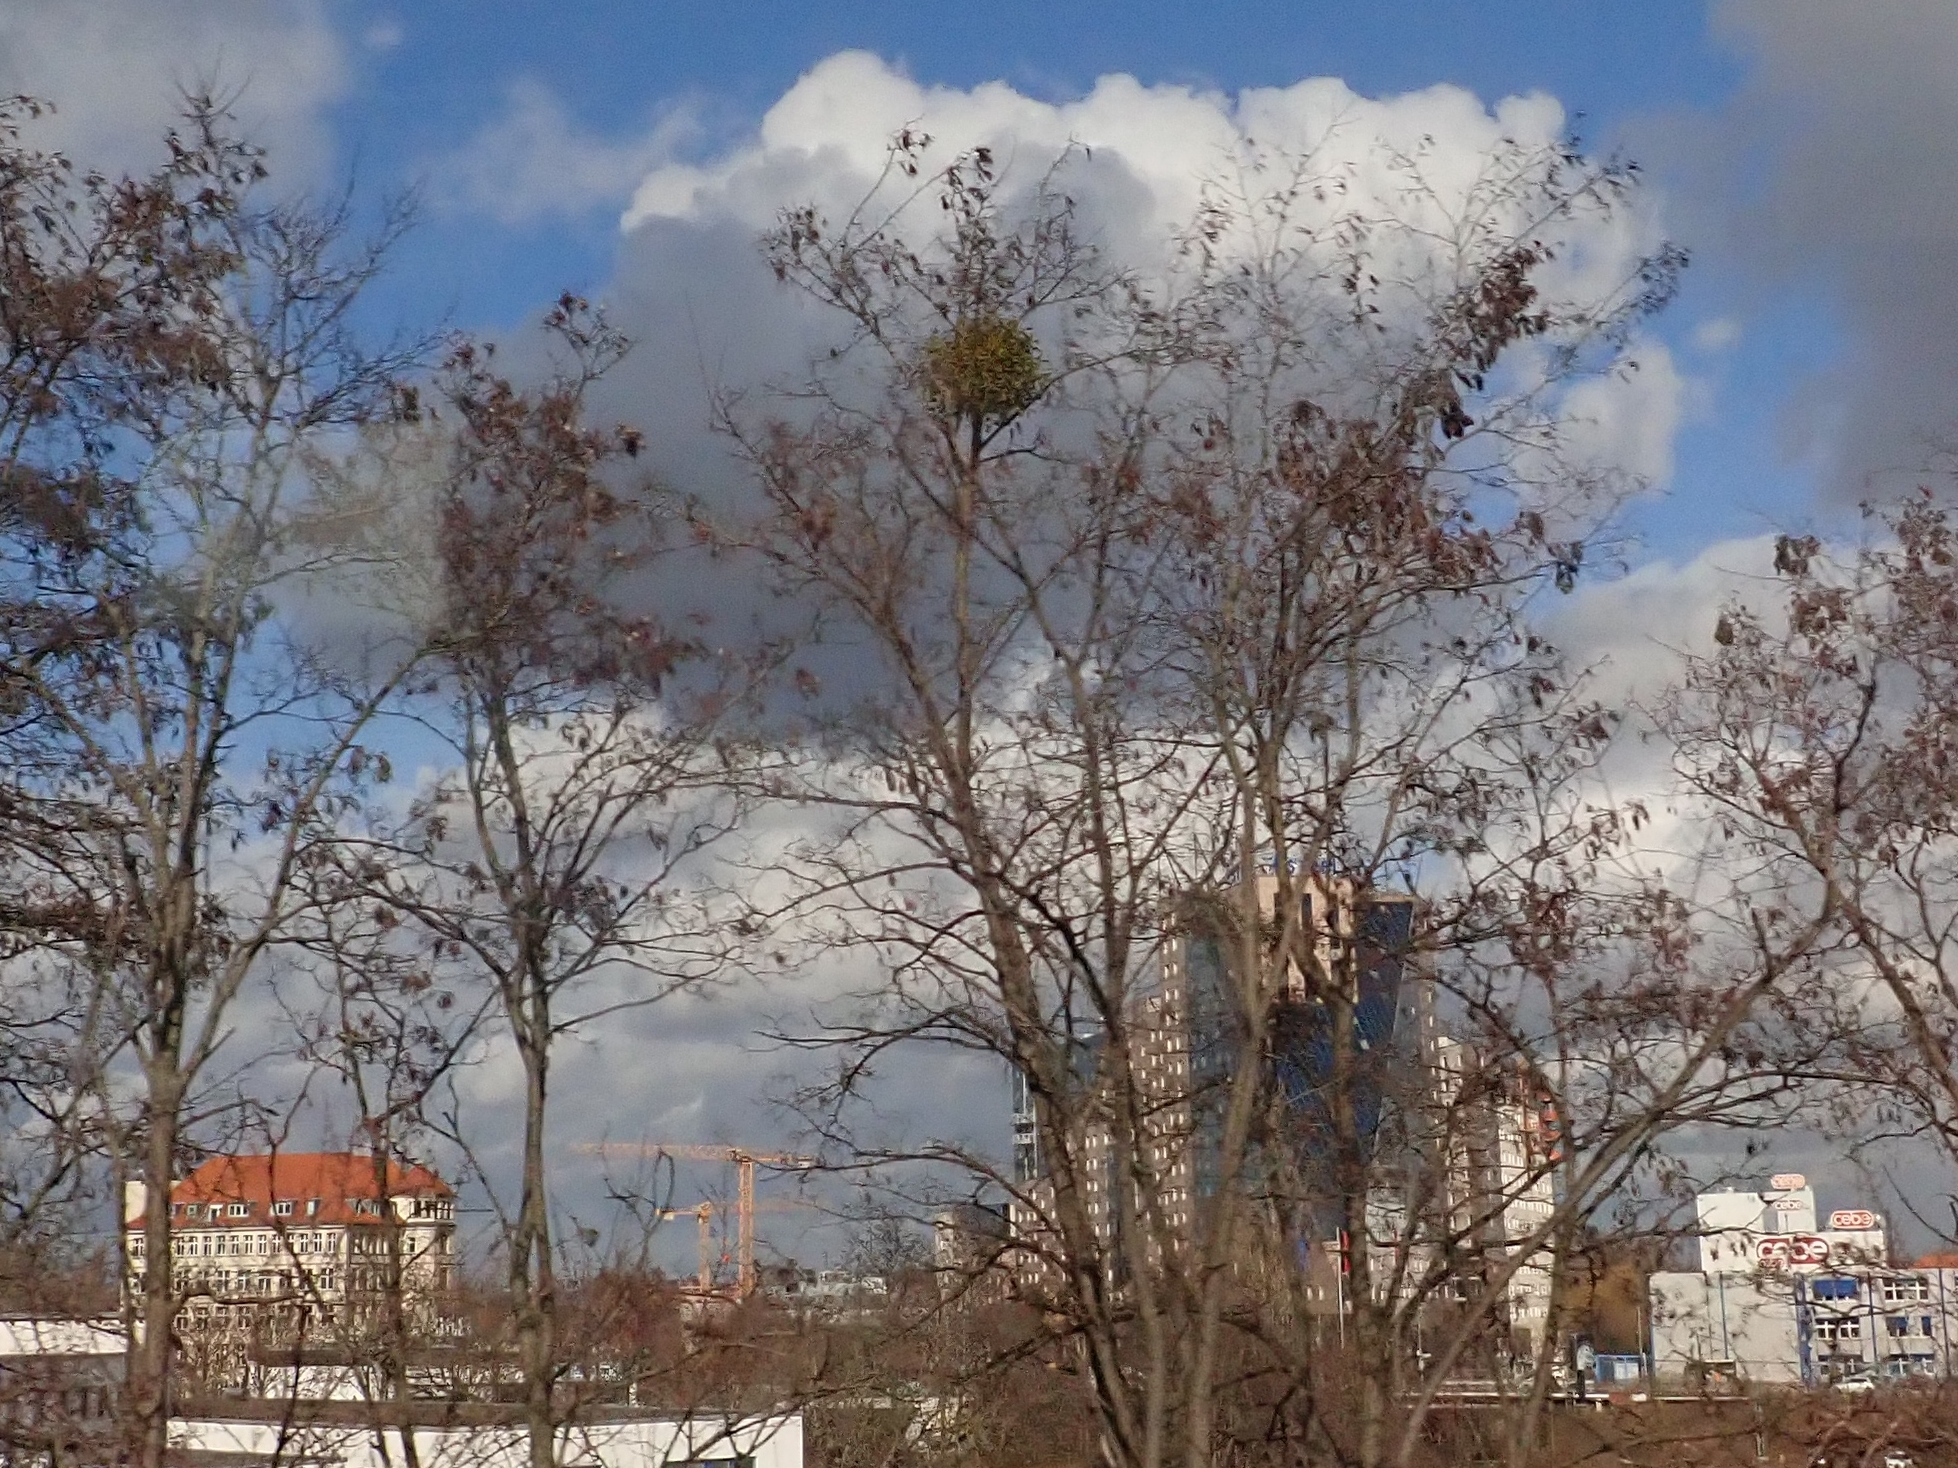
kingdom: Plantae
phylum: Tracheophyta
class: Magnoliopsida
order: Santalales
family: Viscaceae
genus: Viscum
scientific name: Viscum album
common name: Mistletoe
